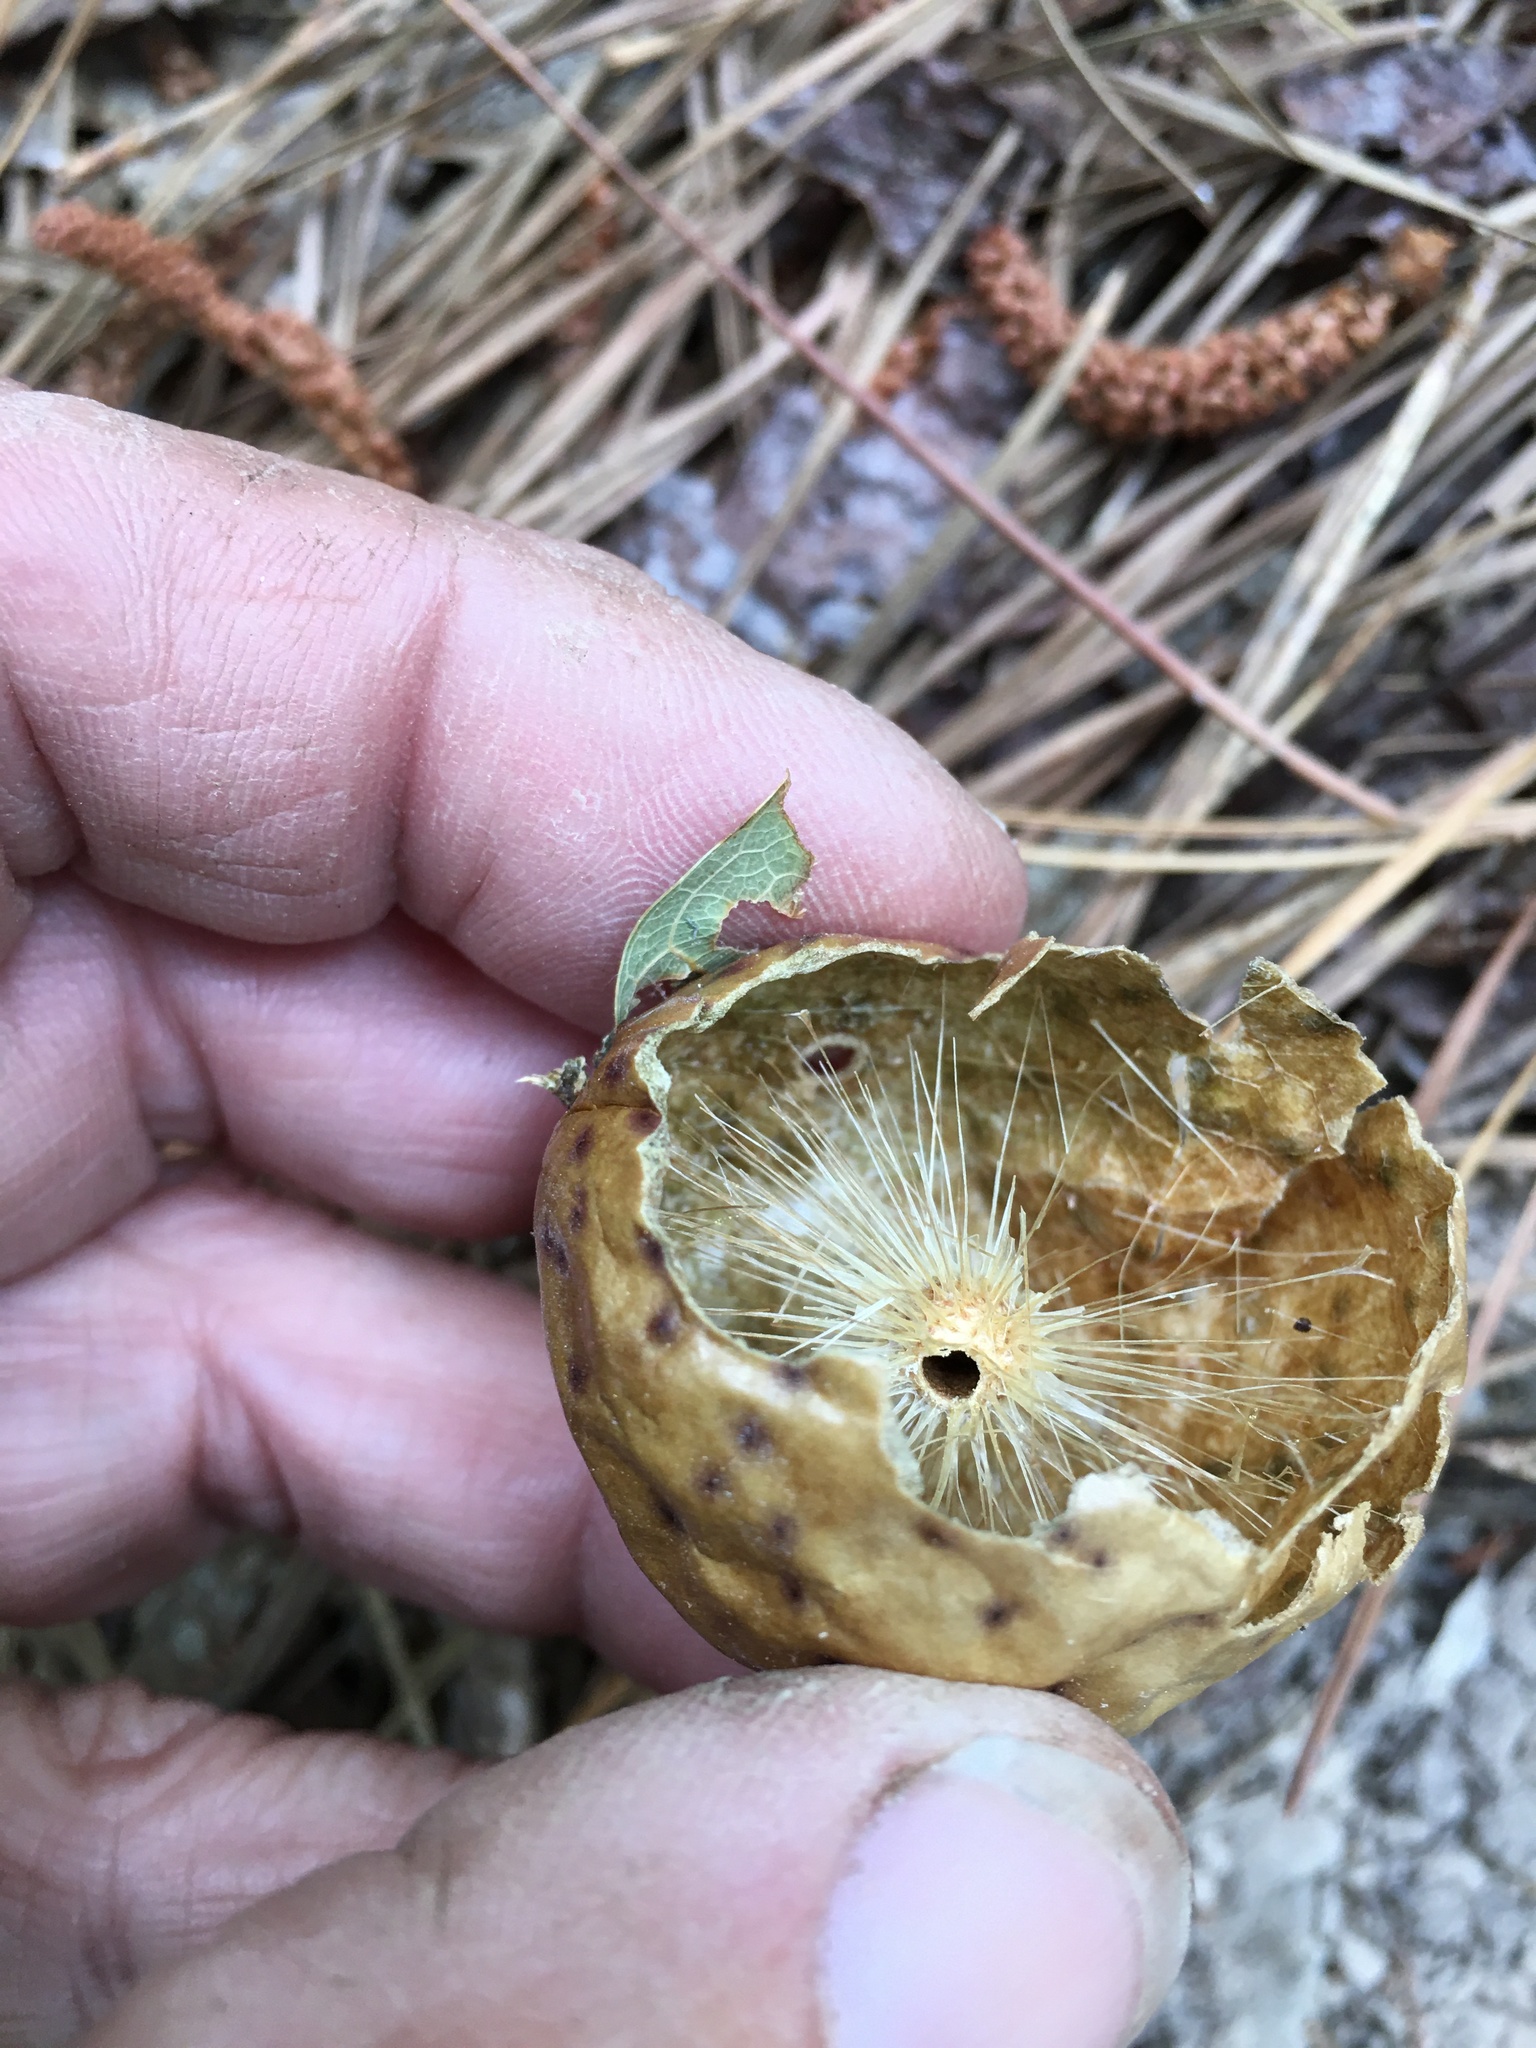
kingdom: Animalia
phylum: Arthropoda
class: Insecta
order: Hymenoptera
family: Cynipidae
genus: Amphibolips
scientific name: Amphibolips
